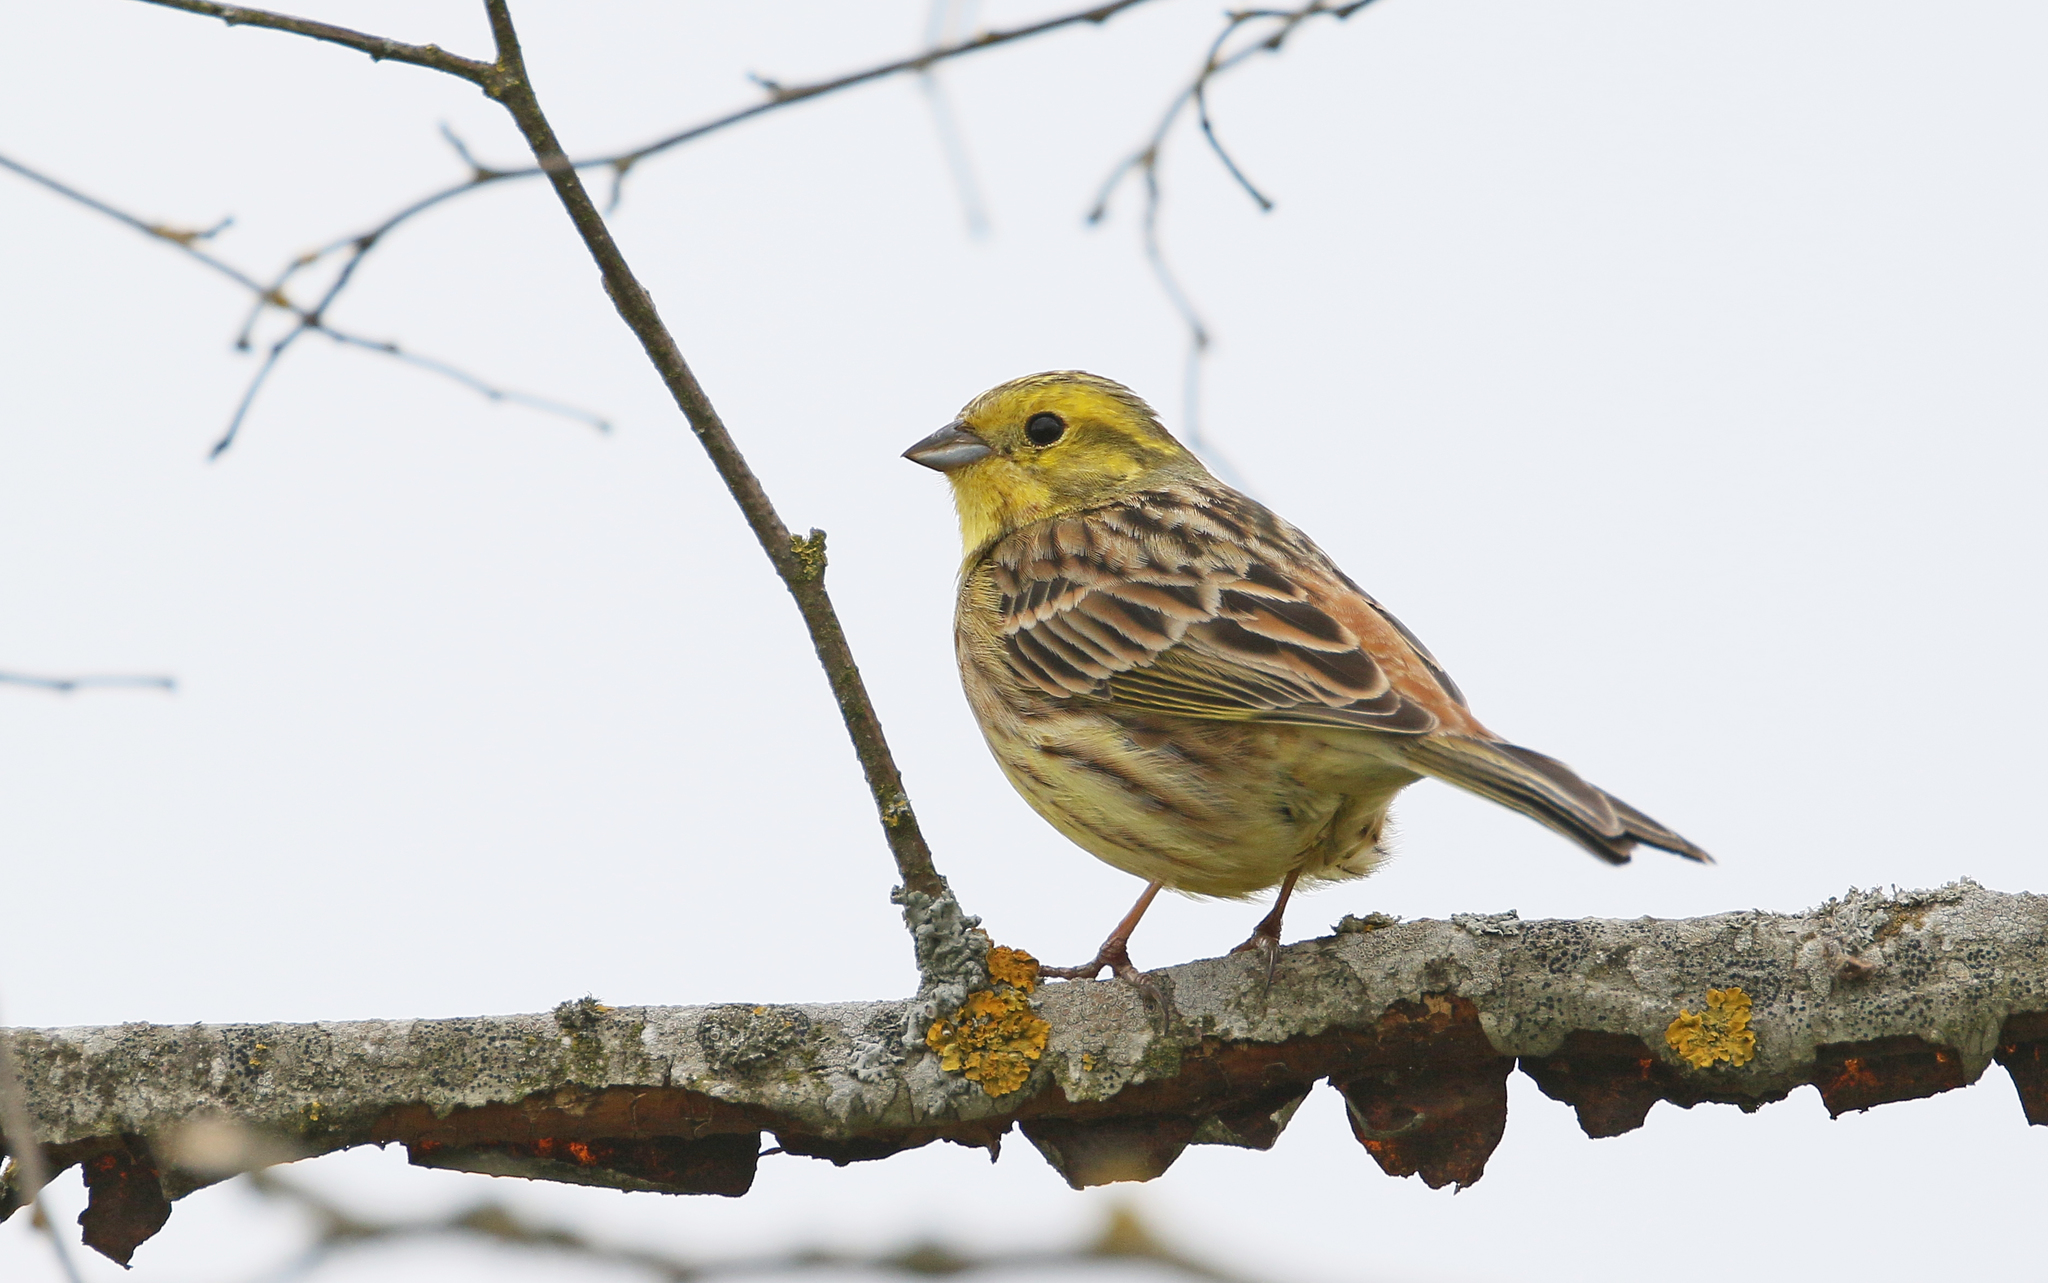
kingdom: Animalia
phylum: Chordata
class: Aves
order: Passeriformes
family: Emberizidae
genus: Emberiza
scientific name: Emberiza citrinella
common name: Yellowhammer
